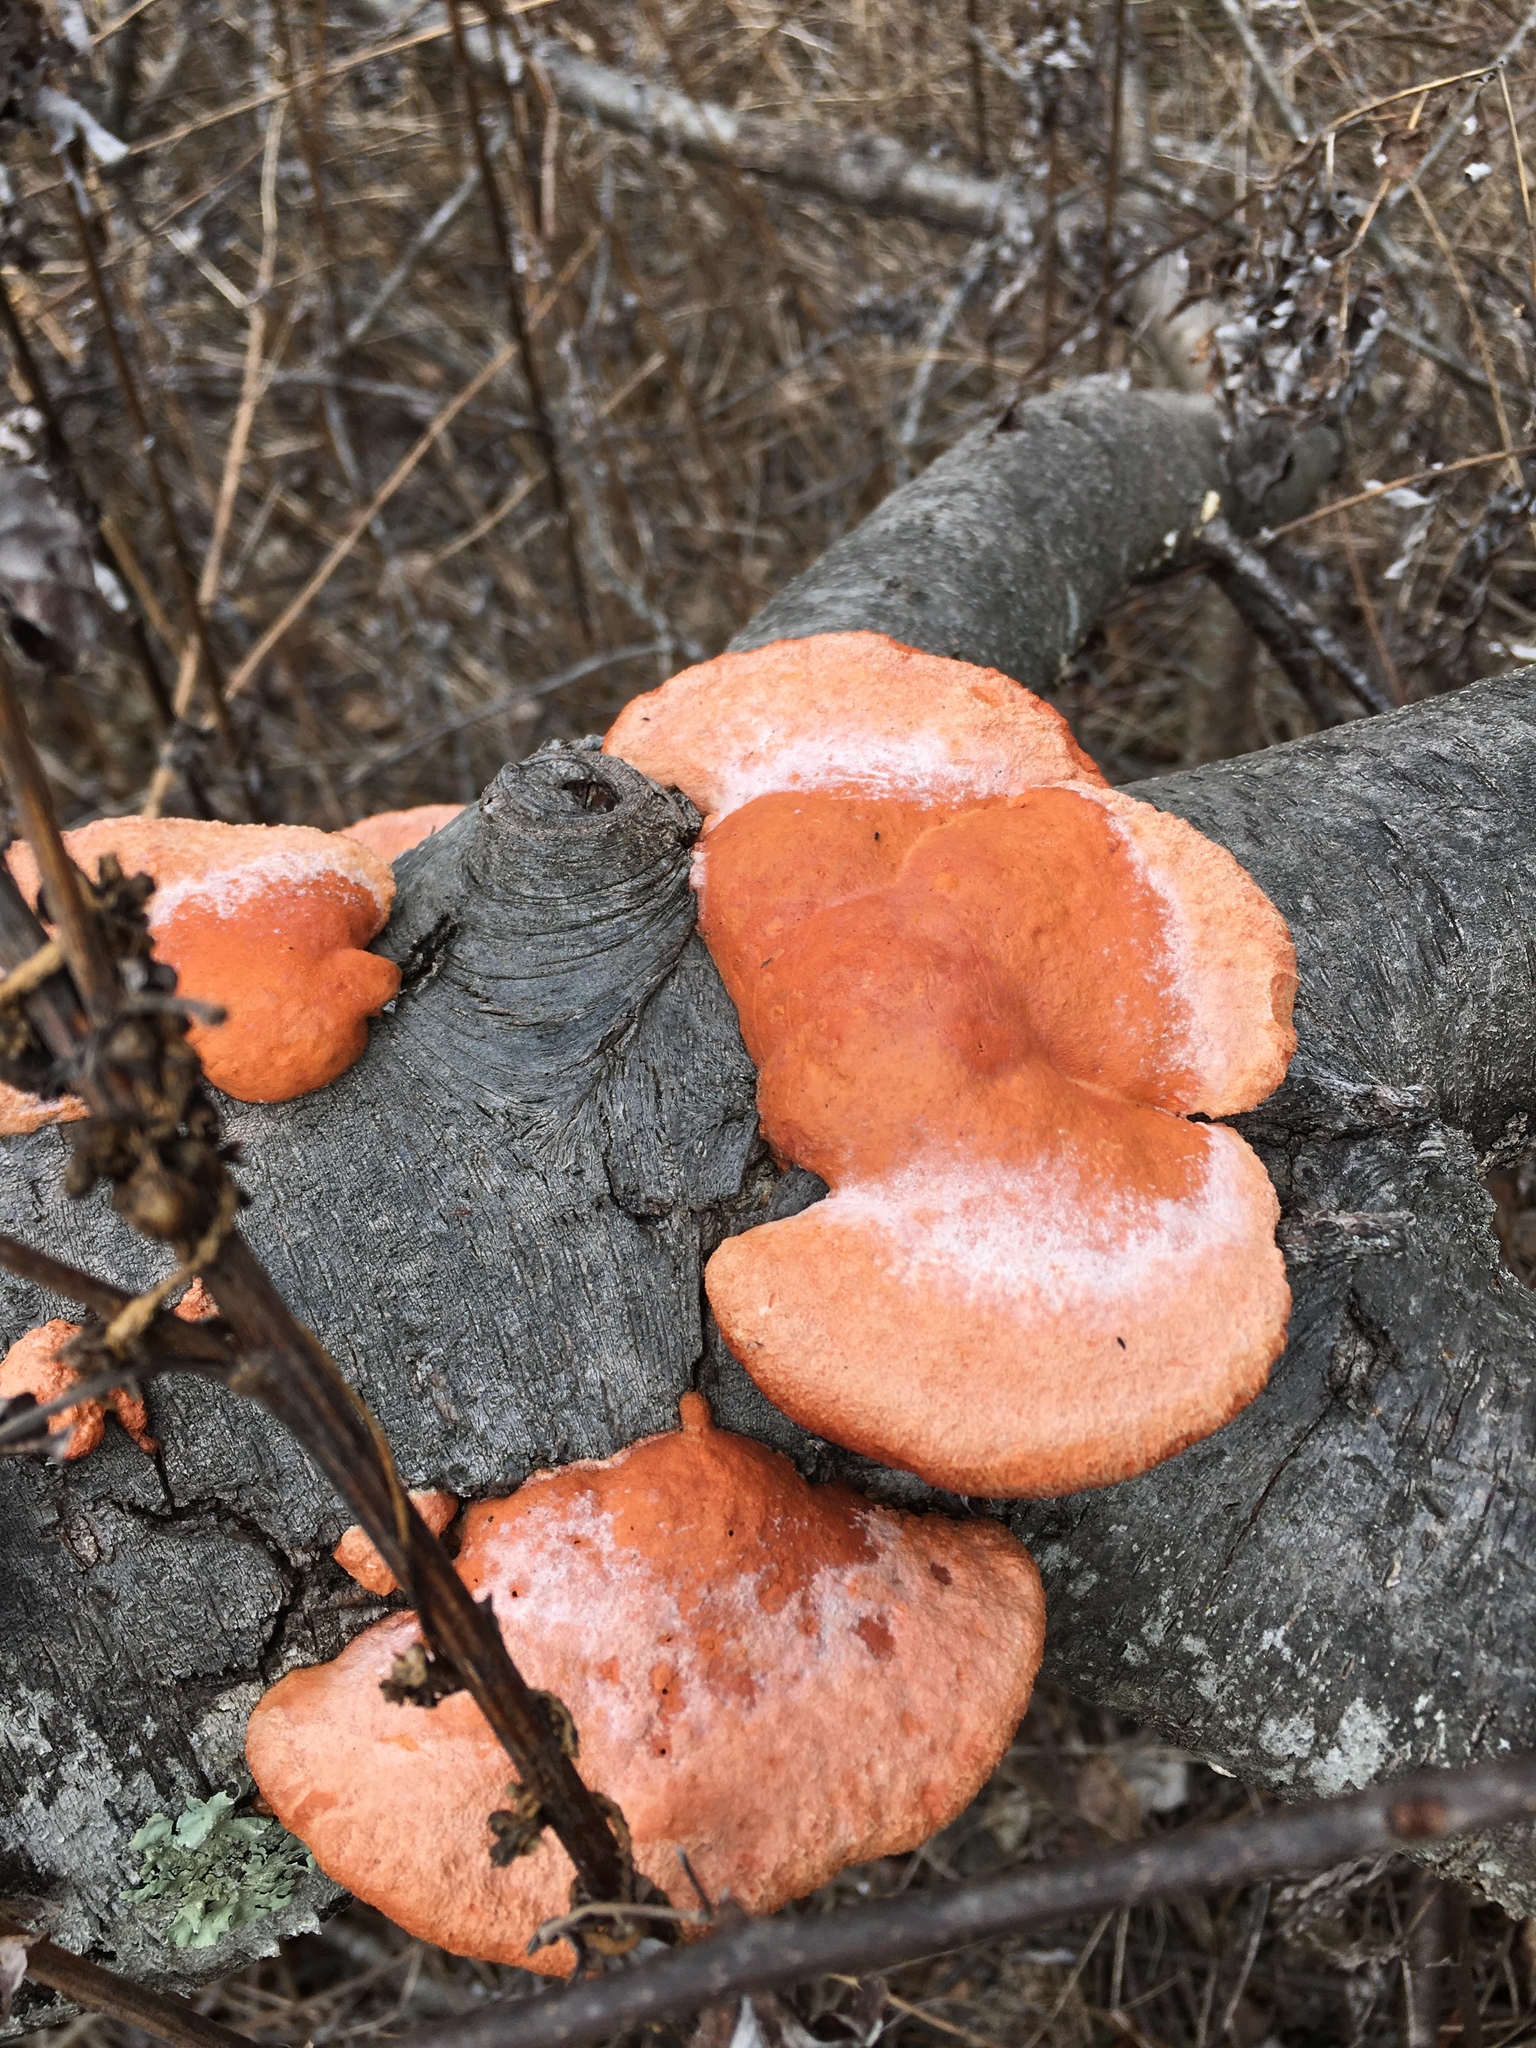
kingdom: Fungi
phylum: Basidiomycota
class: Agaricomycetes
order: Polyporales
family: Polyporaceae
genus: Trametes
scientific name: Trametes cinnabarina
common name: Northern cinnabar polypore
